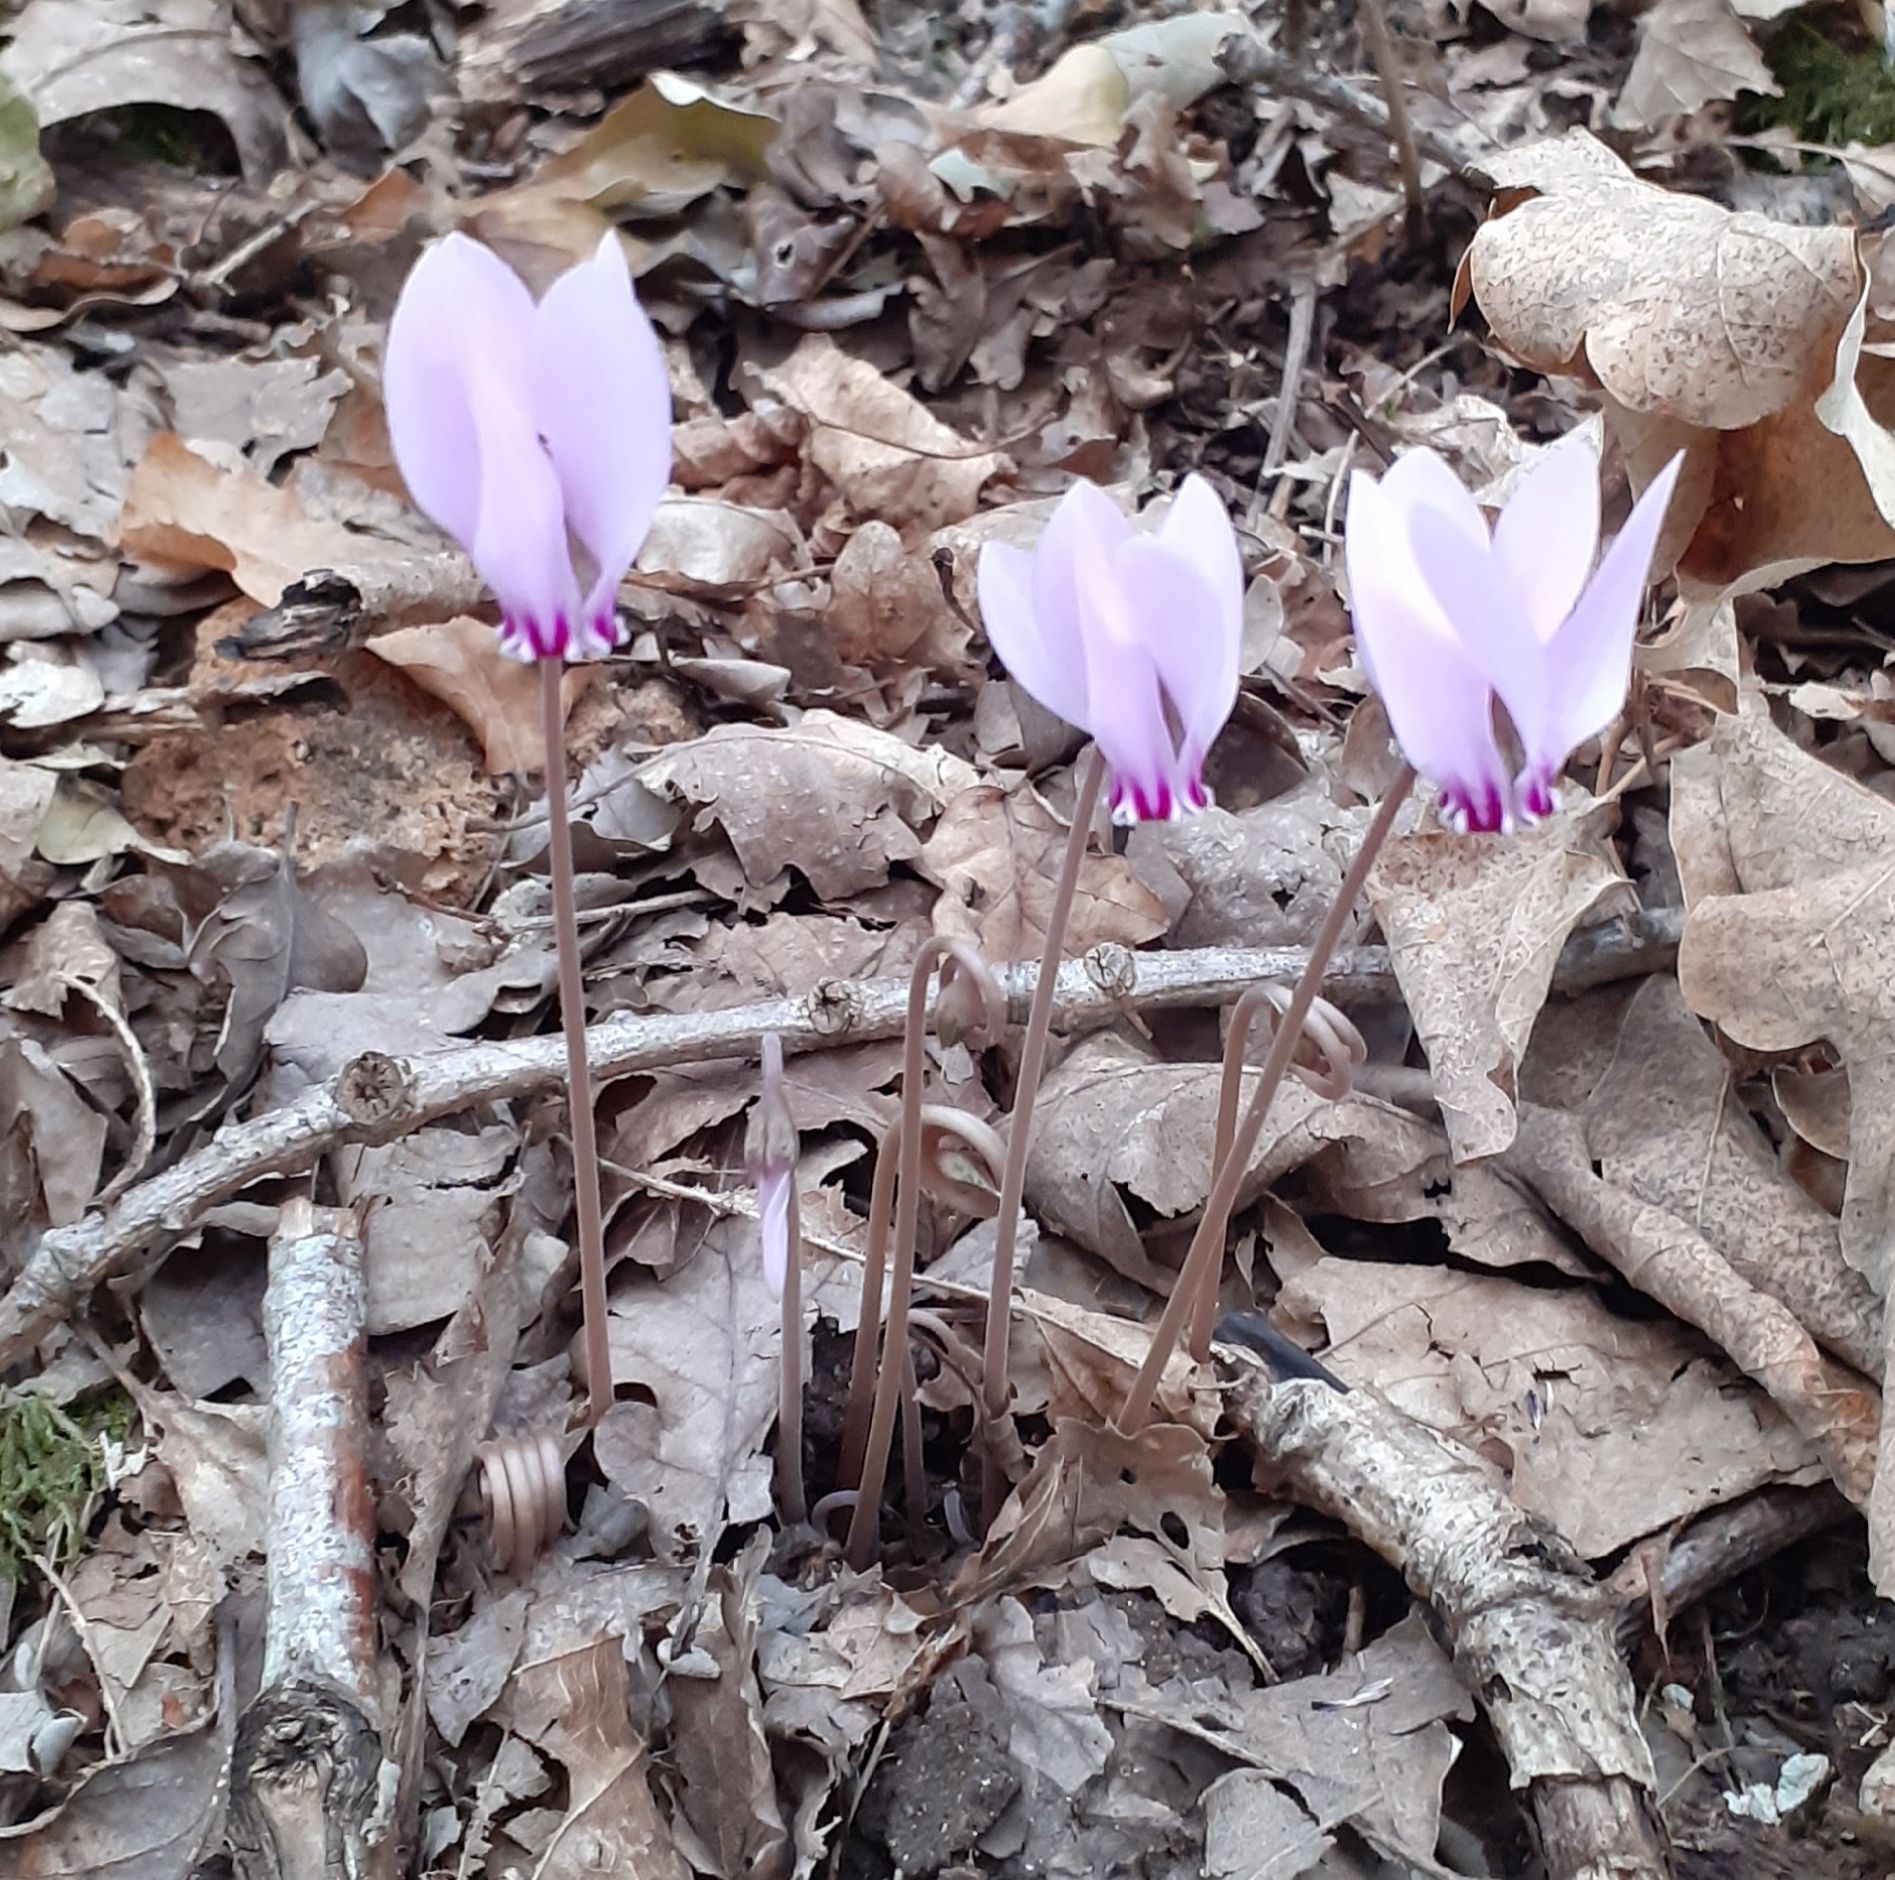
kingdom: Plantae
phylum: Tracheophyta
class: Magnoliopsida
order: Ericales
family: Primulaceae
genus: Cyclamen
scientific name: Cyclamen hederifolium
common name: Sowbread
